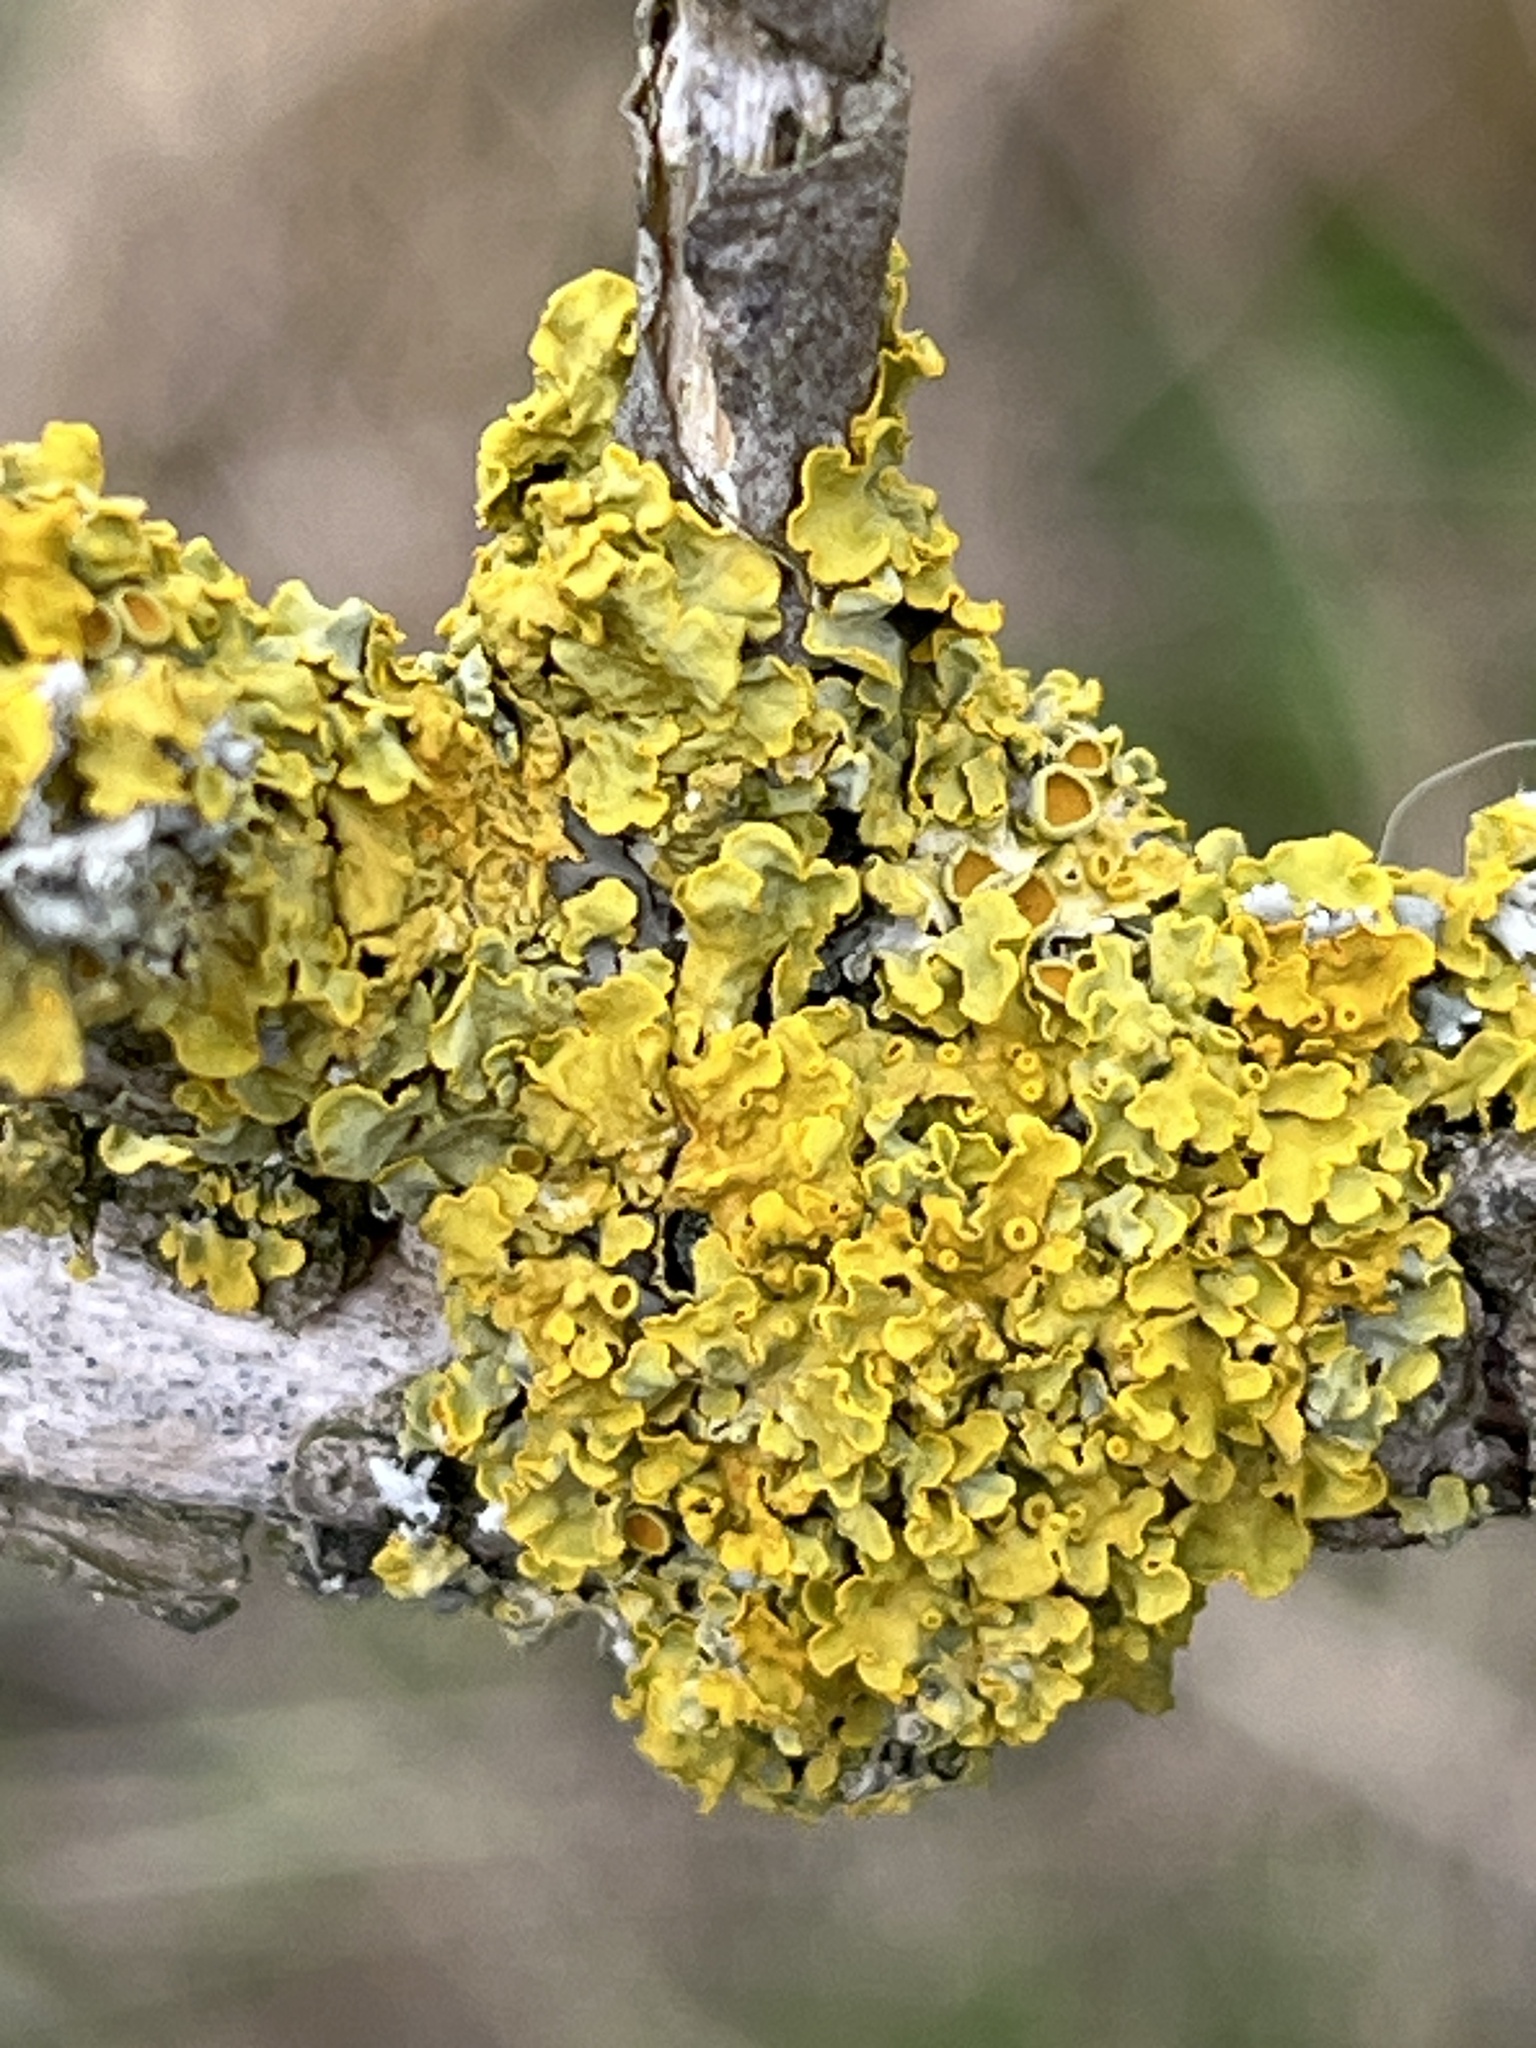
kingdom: Fungi
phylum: Ascomycota
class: Lecanoromycetes
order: Teloschistales
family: Teloschistaceae
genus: Xanthoria
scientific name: Xanthoria parietina
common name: Common orange lichen
